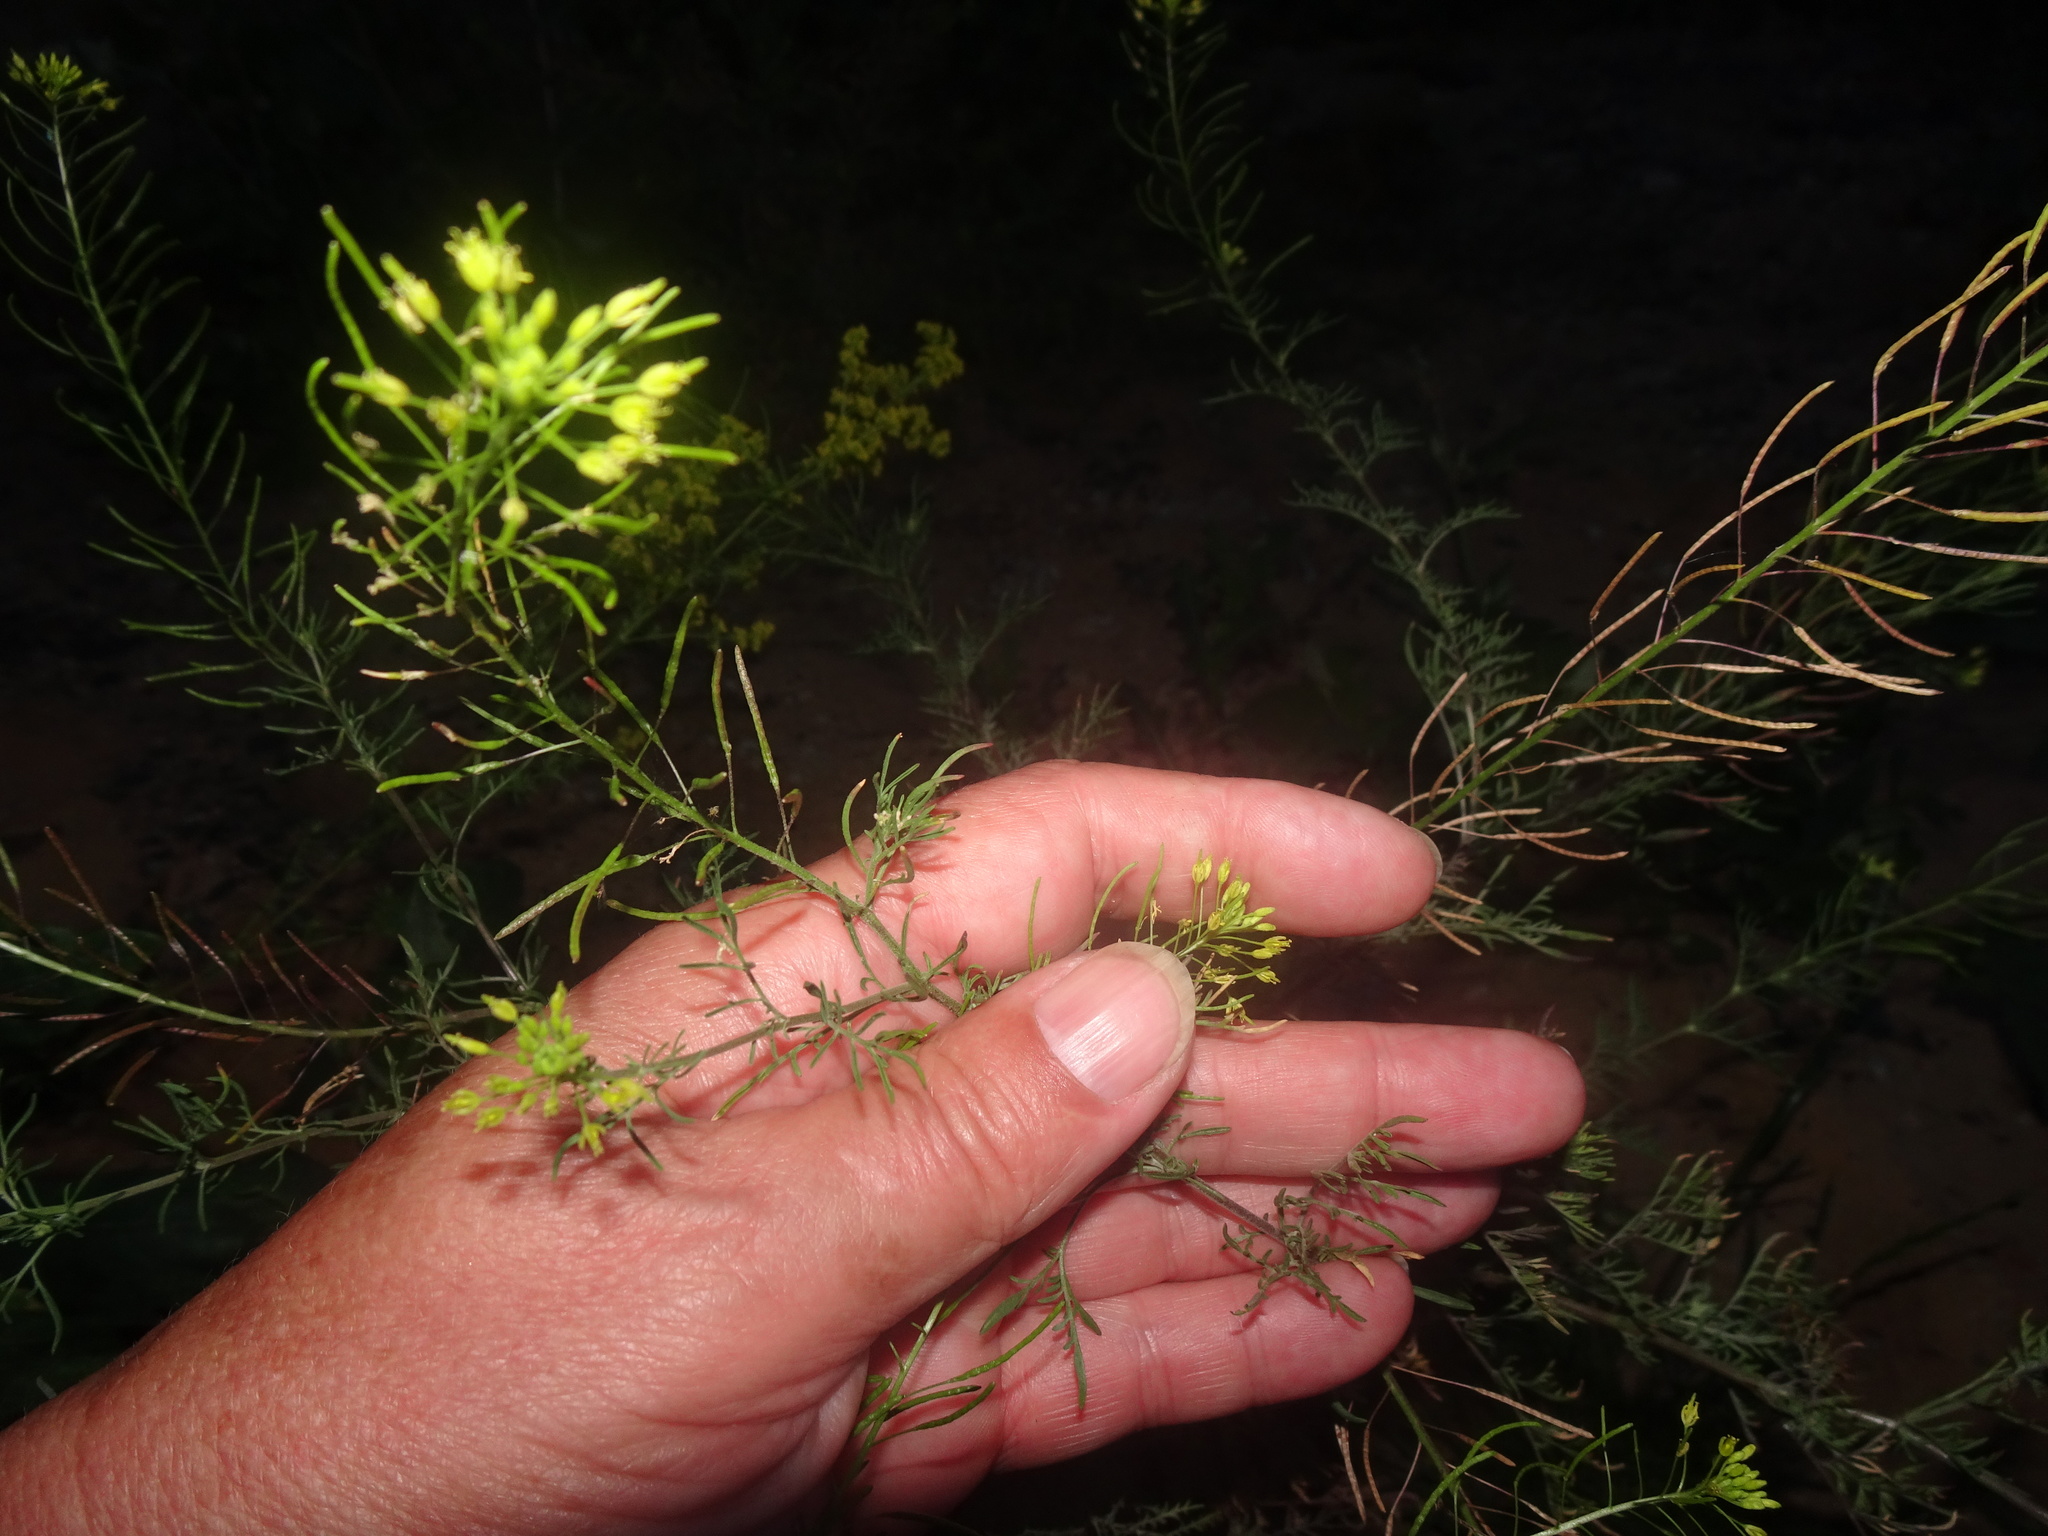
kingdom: Plantae
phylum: Tracheophyta
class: Magnoliopsida
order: Brassicales
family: Brassicaceae
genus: Descurainia
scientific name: Descurainia sophia
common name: Flixweed
